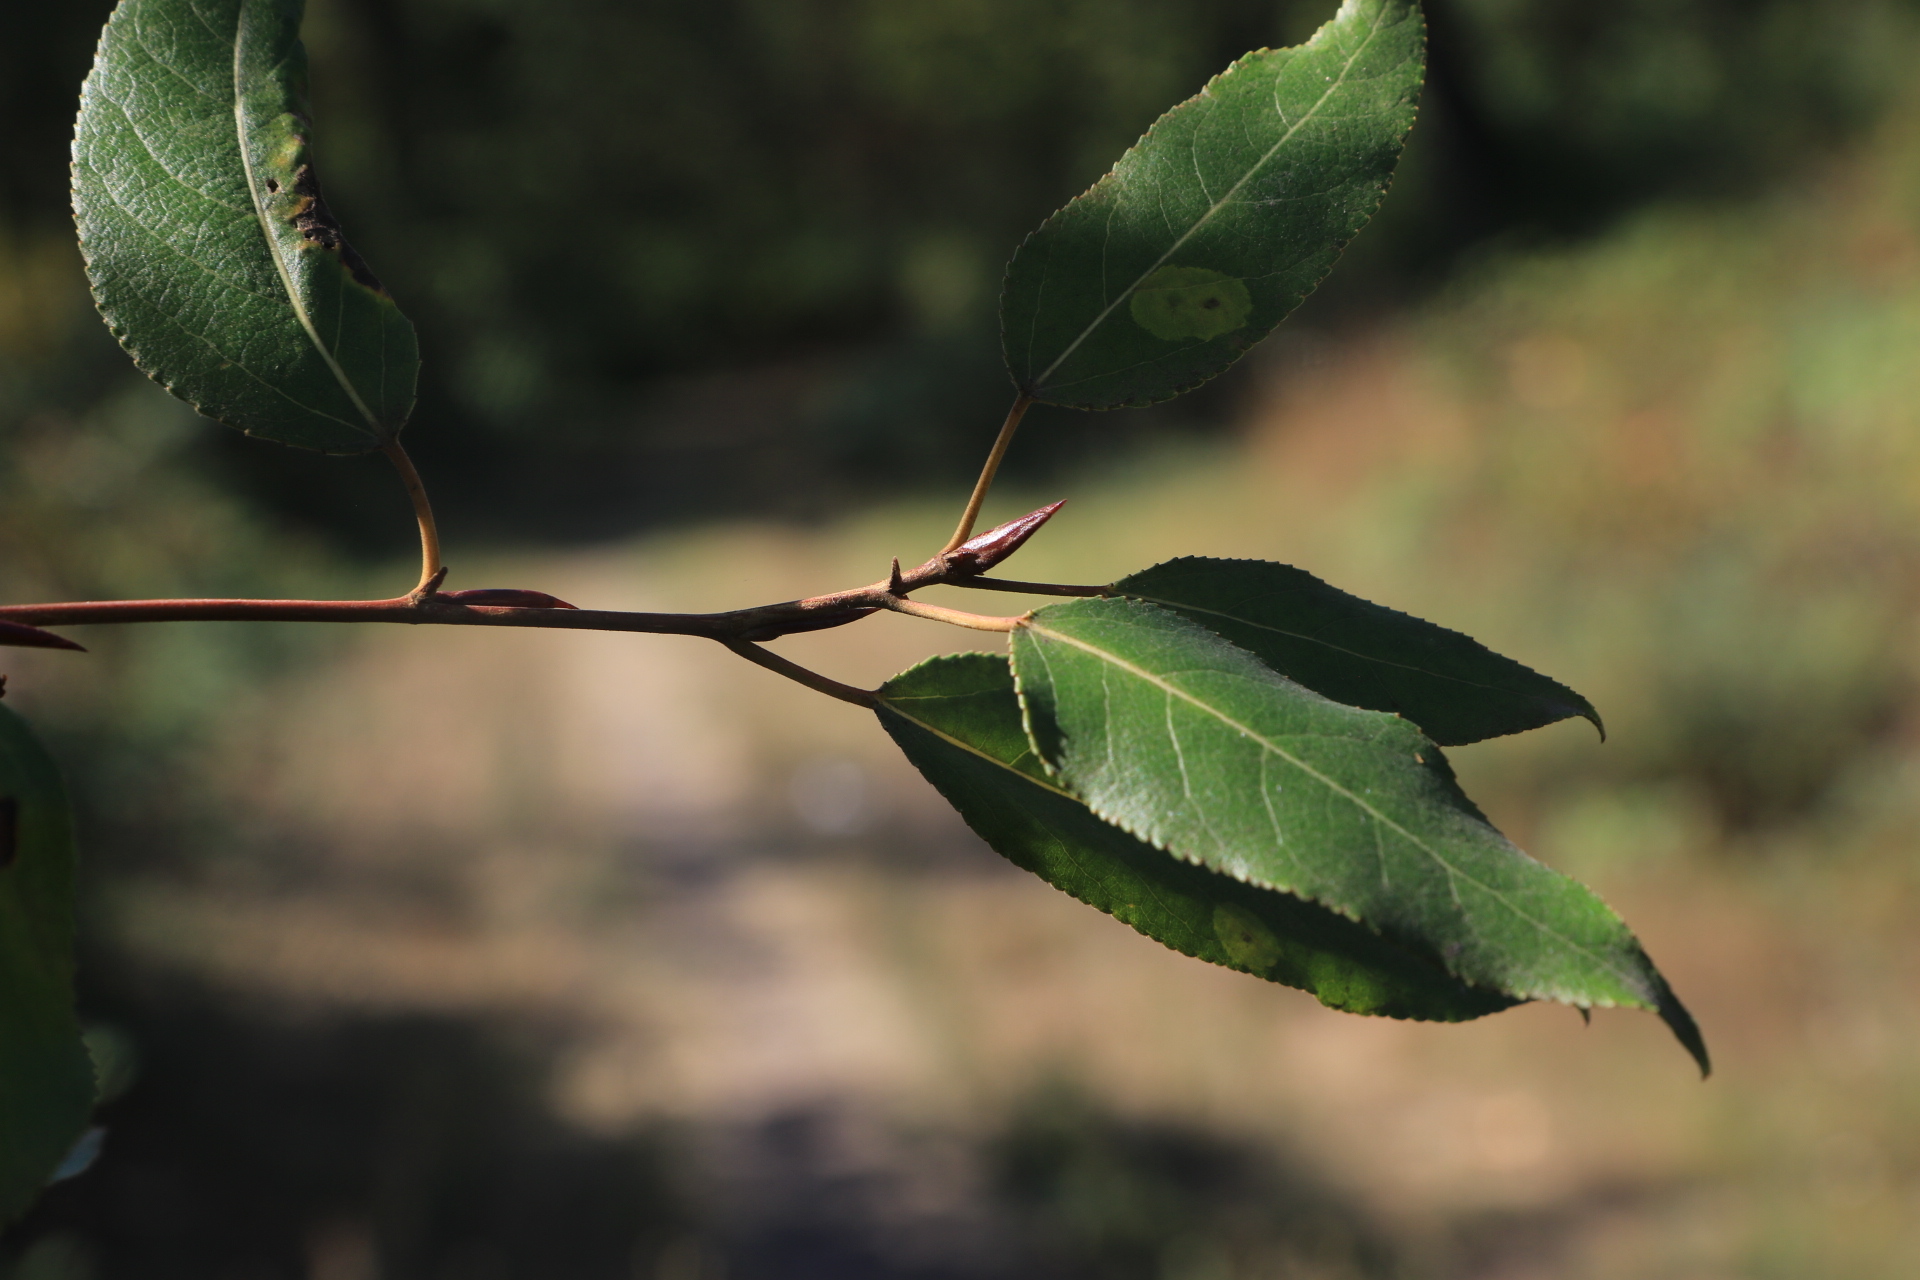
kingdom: Plantae
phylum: Tracheophyta
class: Magnoliopsida
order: Malpighiales
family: Salicaceae
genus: Populus
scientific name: Populus trichocarpa
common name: Black cottonwood
